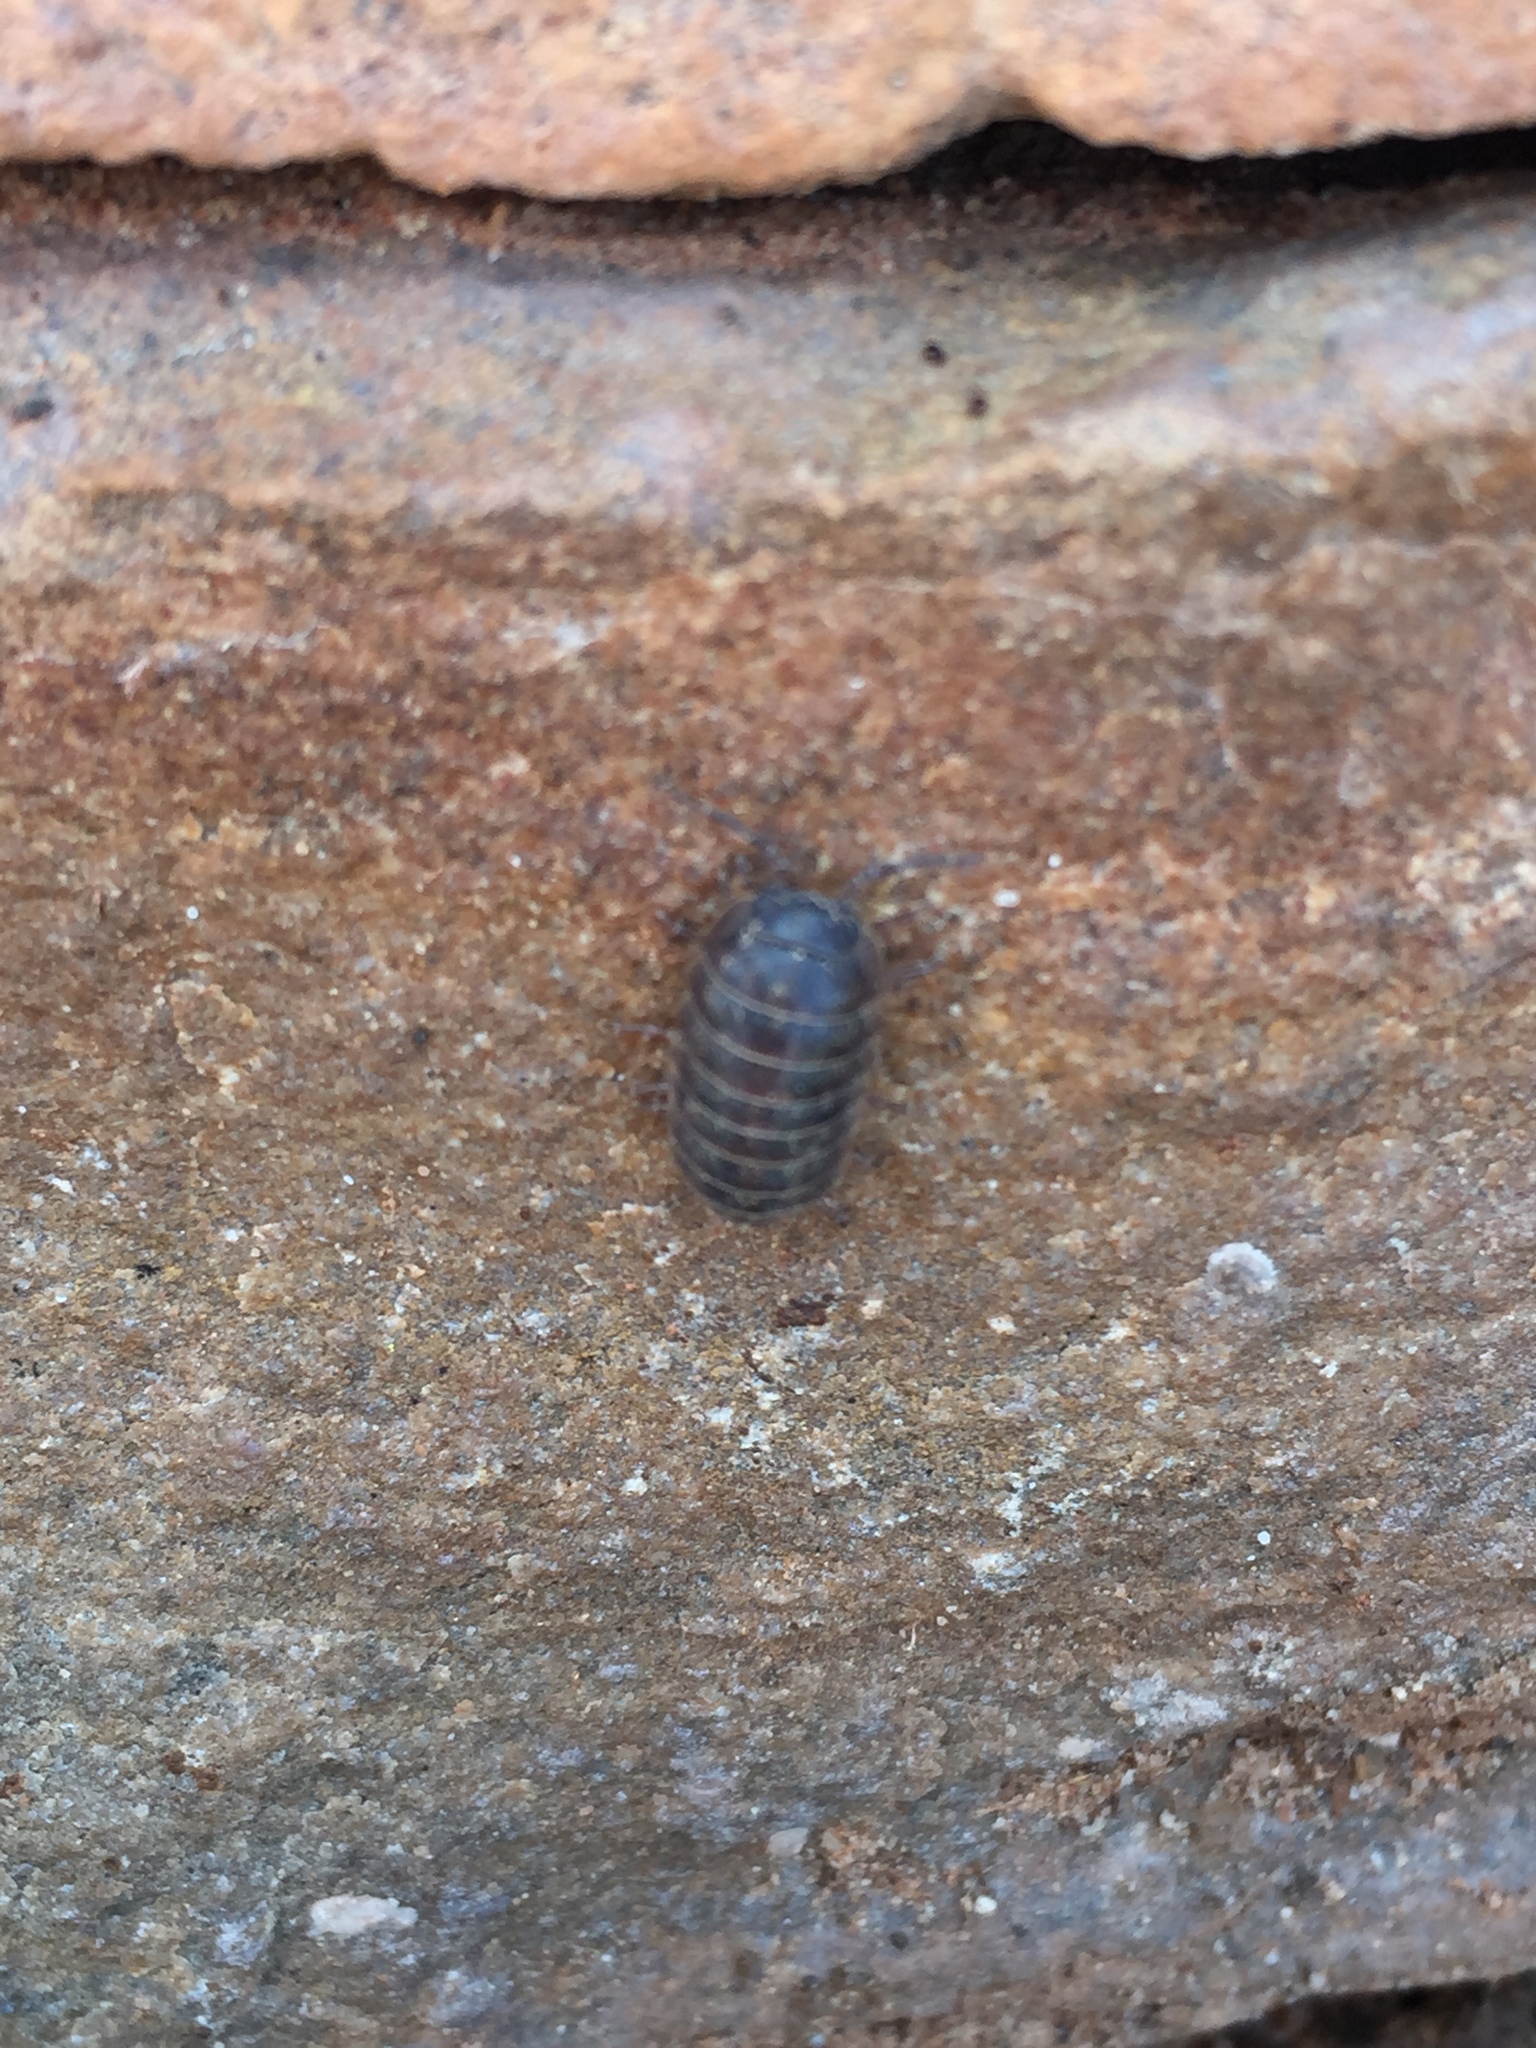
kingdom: Animalia
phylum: Arthropoda
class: Malacostraca
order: Isopoda
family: Armadillidiidae
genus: Armadillidium
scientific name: Armadillidium vulgare
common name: Common pill woodlouse
